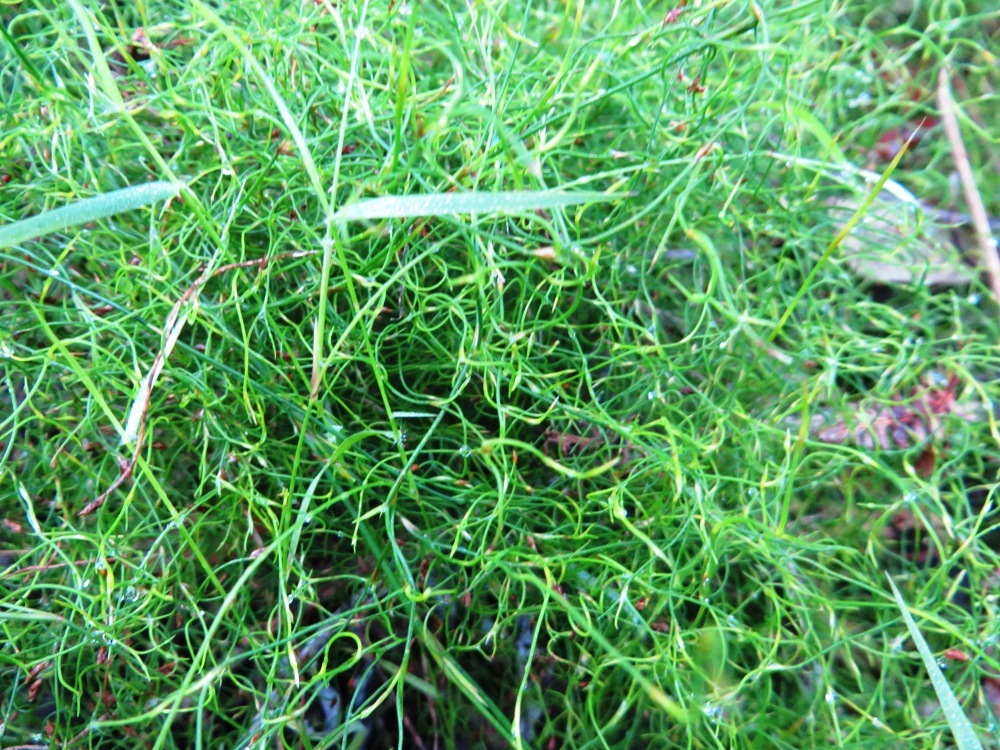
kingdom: Plantae
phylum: Tracheophyta
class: Liliopsida
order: Poales
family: Restionaceae
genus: Restio
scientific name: Restio perplexus
